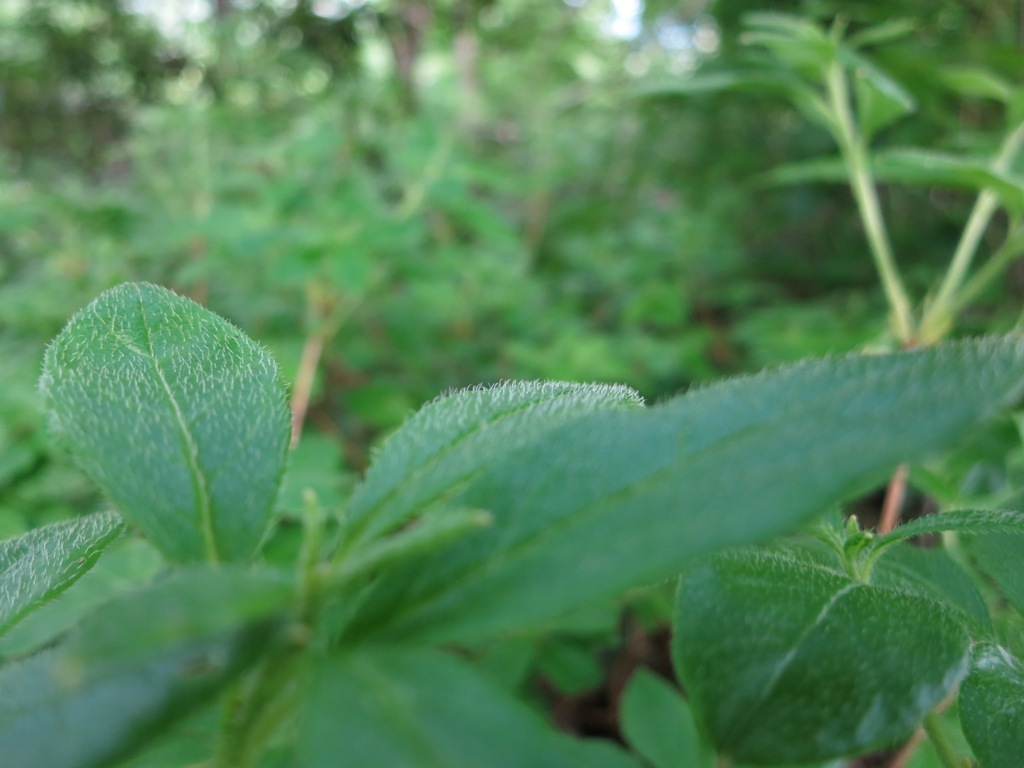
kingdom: Plantae
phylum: Tracheophyta
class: Magnoliopsida
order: Ericales
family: Ericaceae
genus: Rhododendron
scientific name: Rhododendron pilosum
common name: Hairy minniebush
